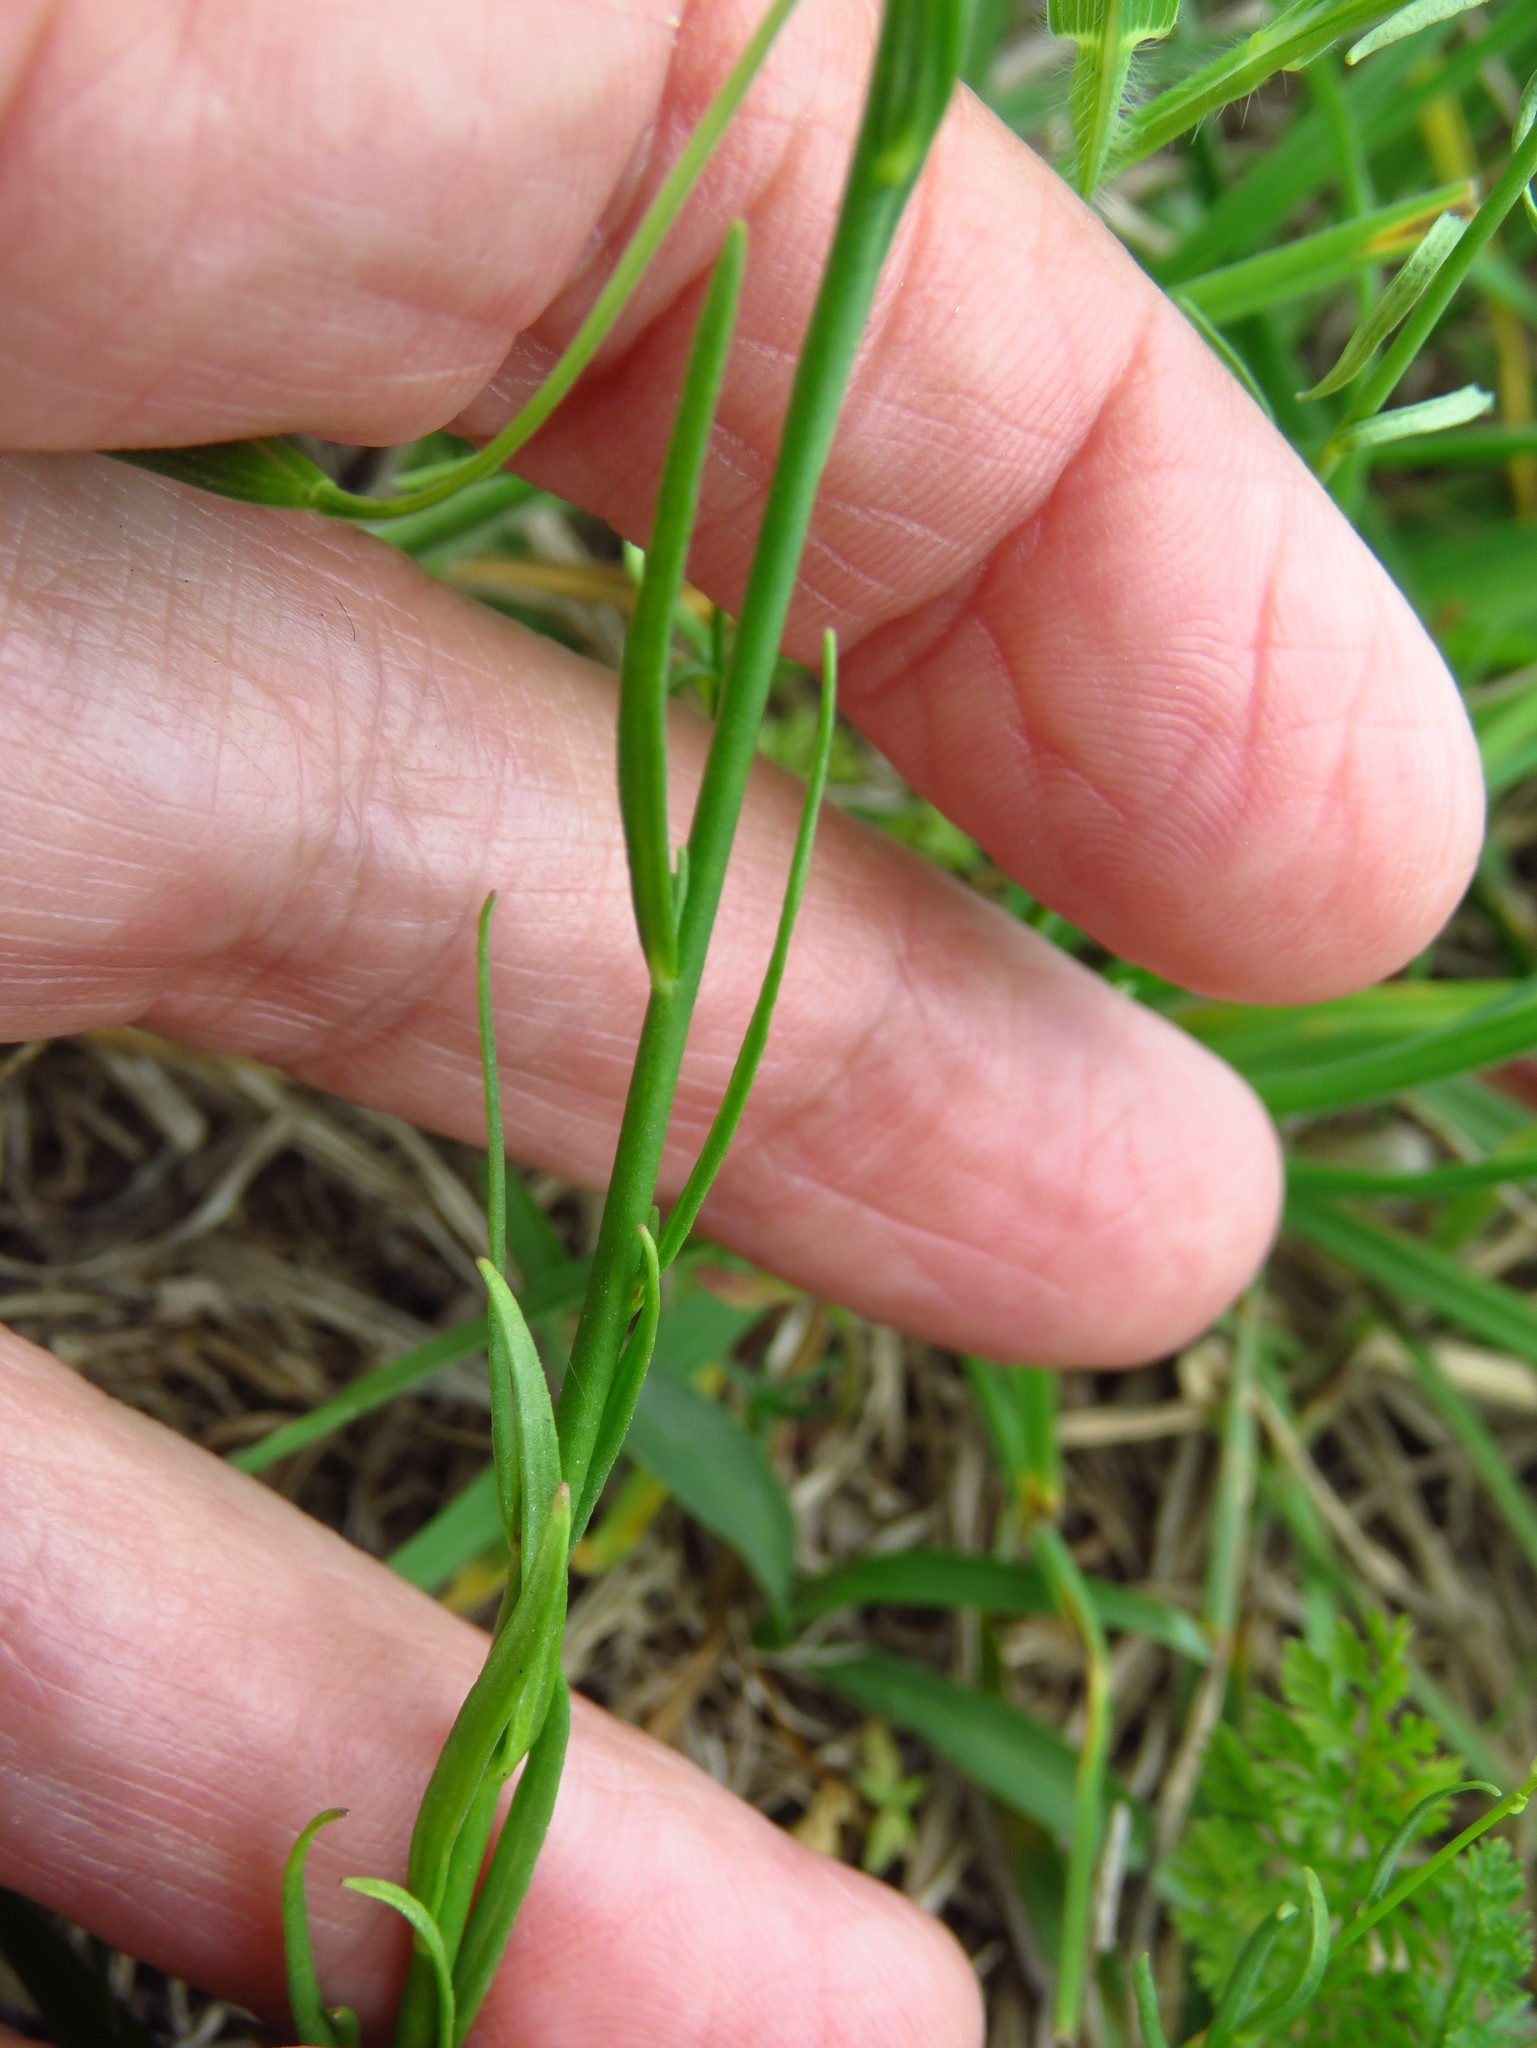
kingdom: Plantae
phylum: Tracheophyta
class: Magnoliopsida
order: Lamiales
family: Plantaginaceae
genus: Nuttallanthus
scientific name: Nuttallanthus texanus
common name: Texas toadflax
